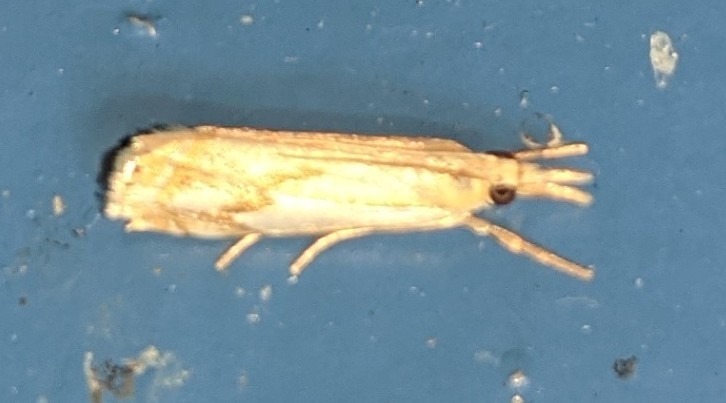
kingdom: Animalia
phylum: Arthropoda
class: Insecta
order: Lepidoptera
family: Crambidae
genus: Crambus
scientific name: Crambus agitatellus
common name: Double-banded grass-veneer
